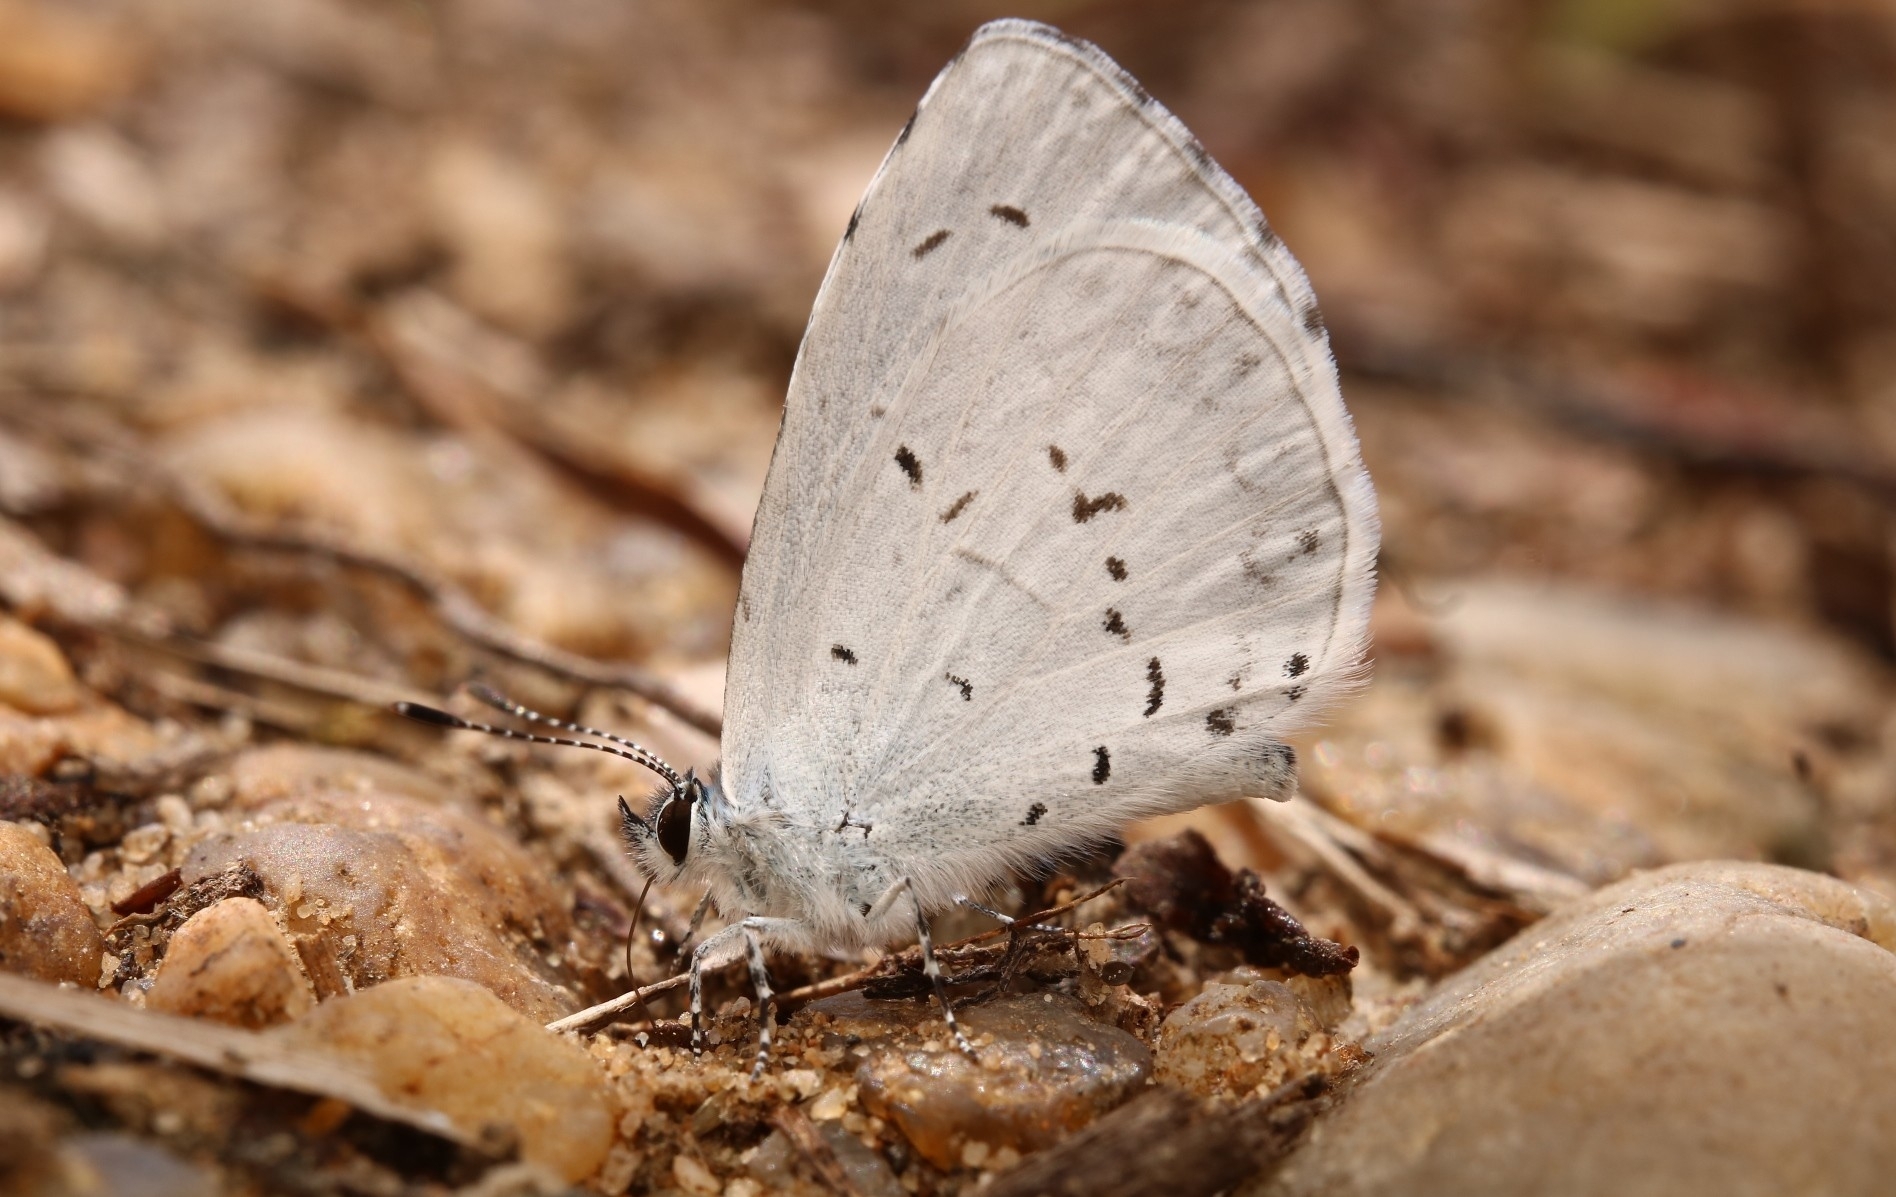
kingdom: Animalia
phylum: Arthropoda
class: Insecta
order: Lepidoptera
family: Lycaenidae
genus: Cyaniris
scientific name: Cyaniris neglecta
